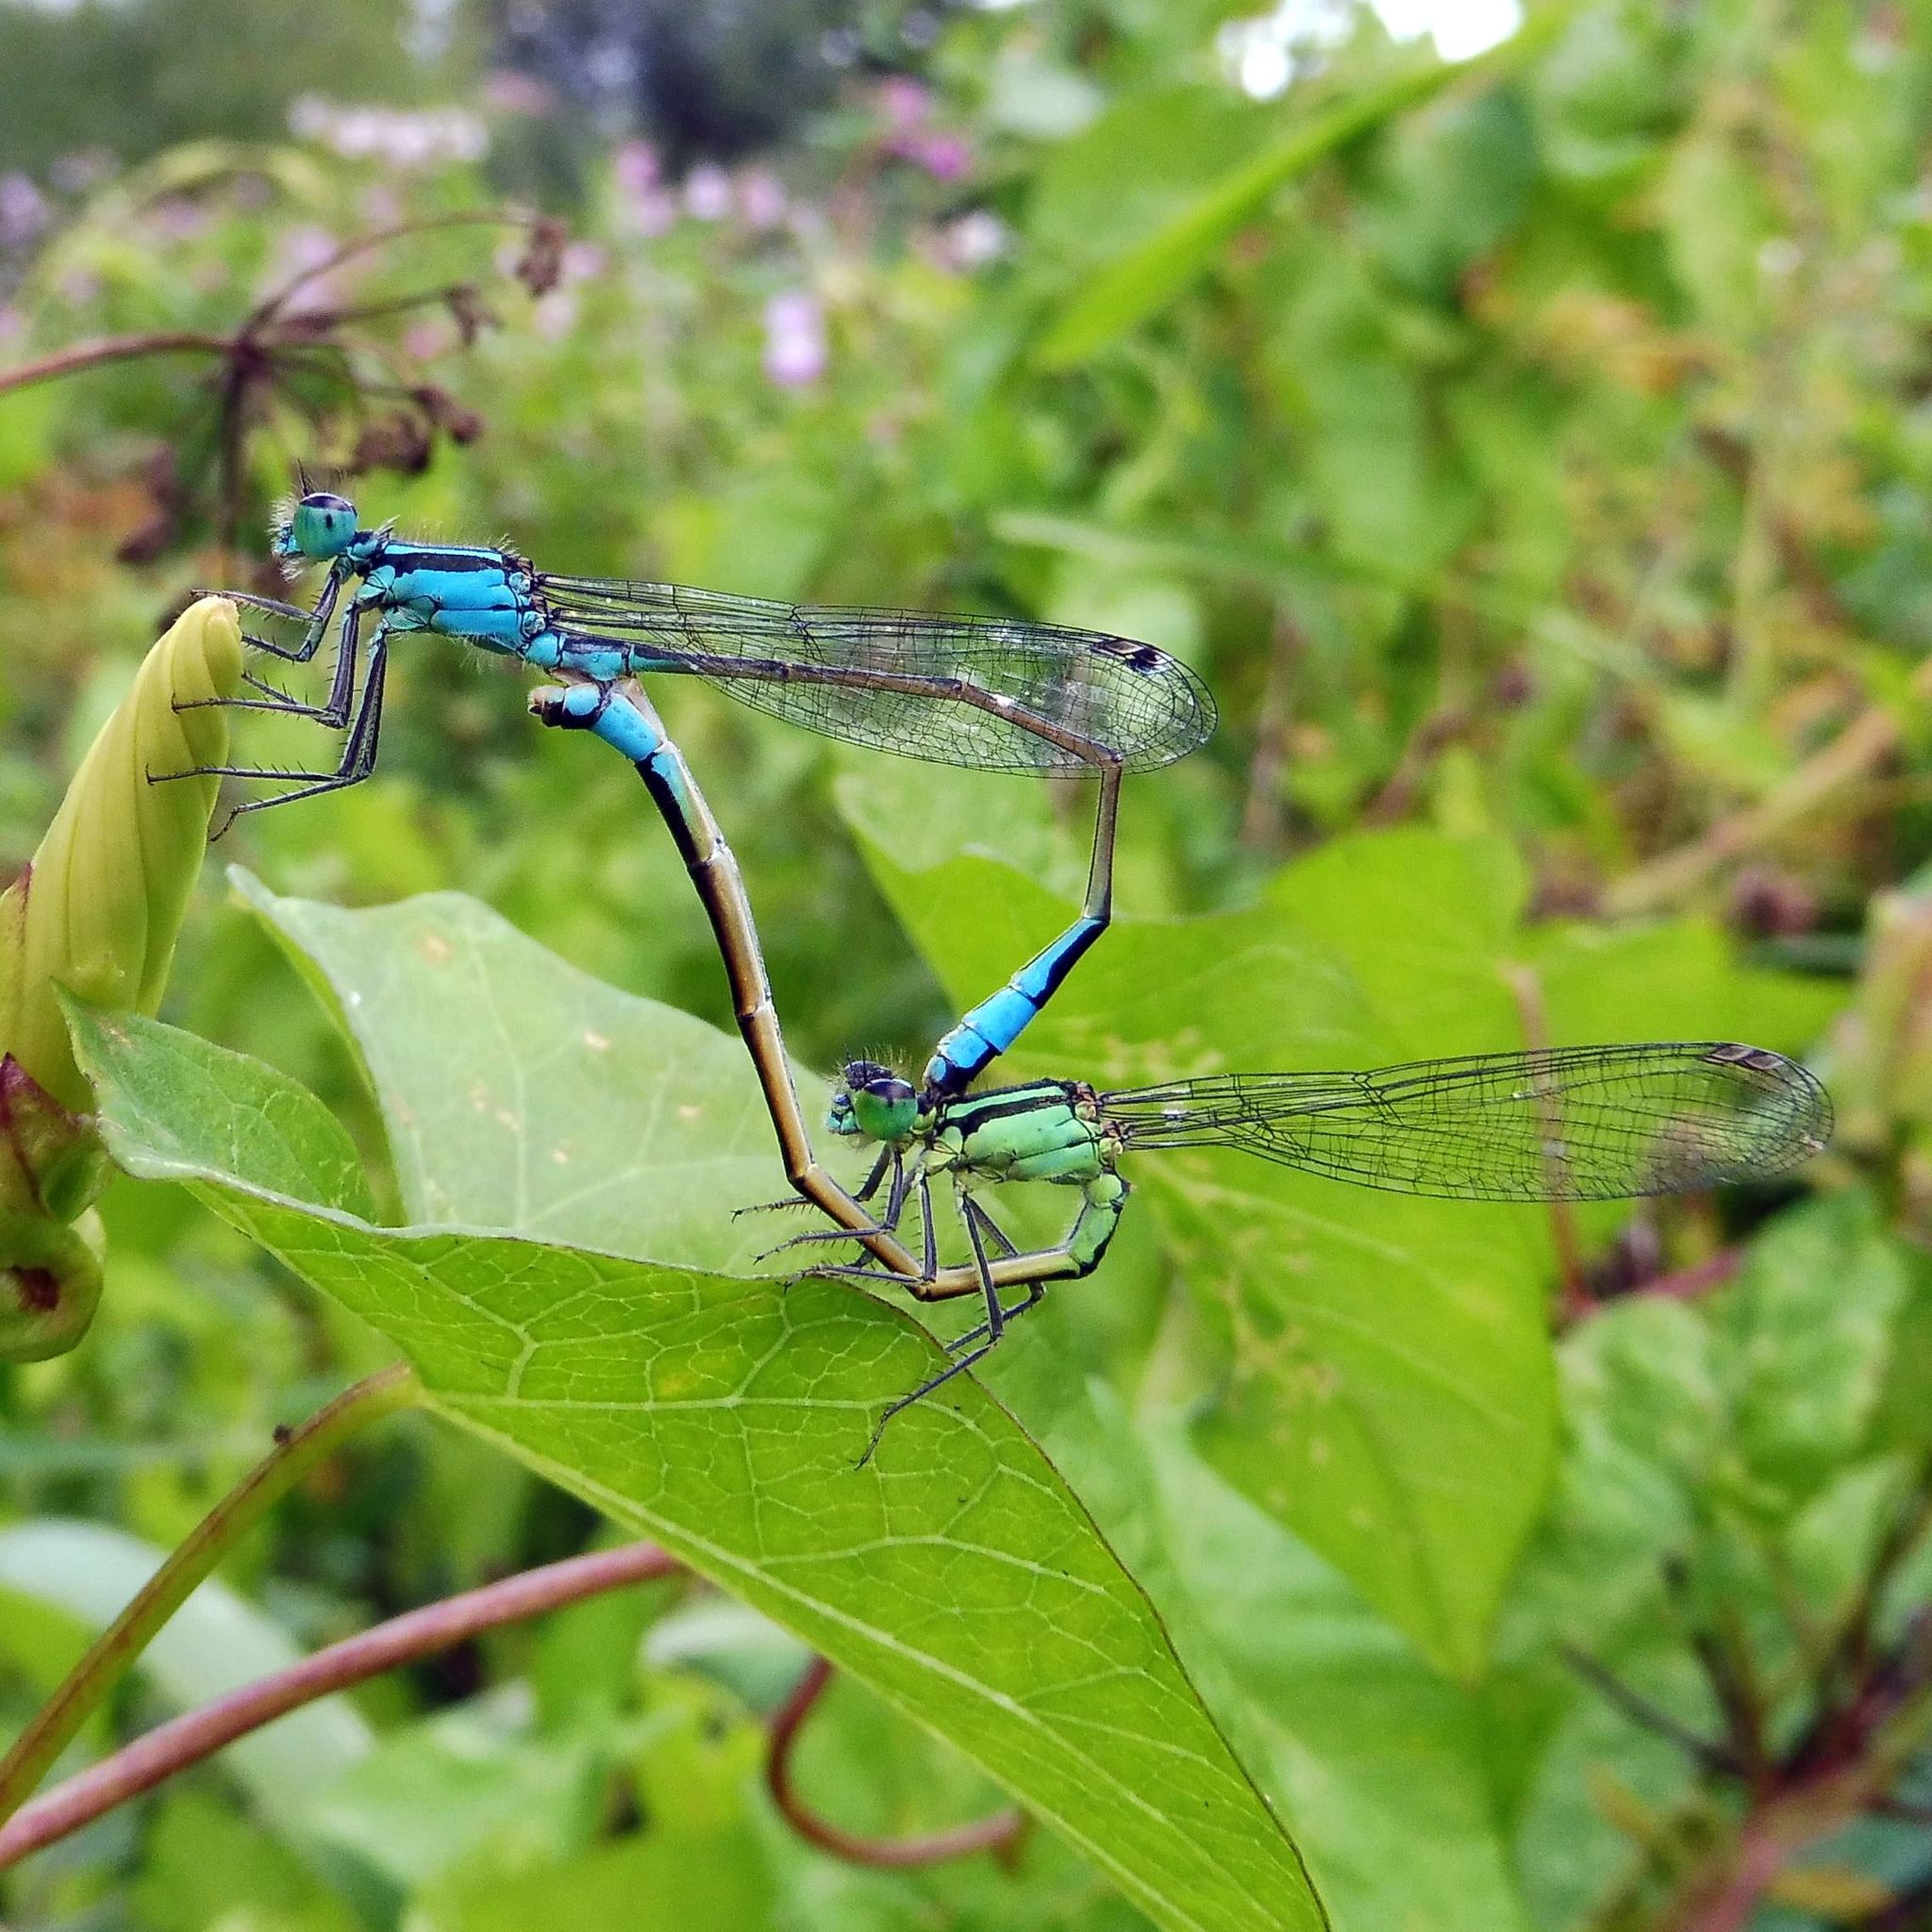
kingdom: Animalia
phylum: Arthropoda
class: Insecta
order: Odonata
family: Coenagrionidae
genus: Ischnura
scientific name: Ischnura elegans
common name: Blue-tailed damselfly
